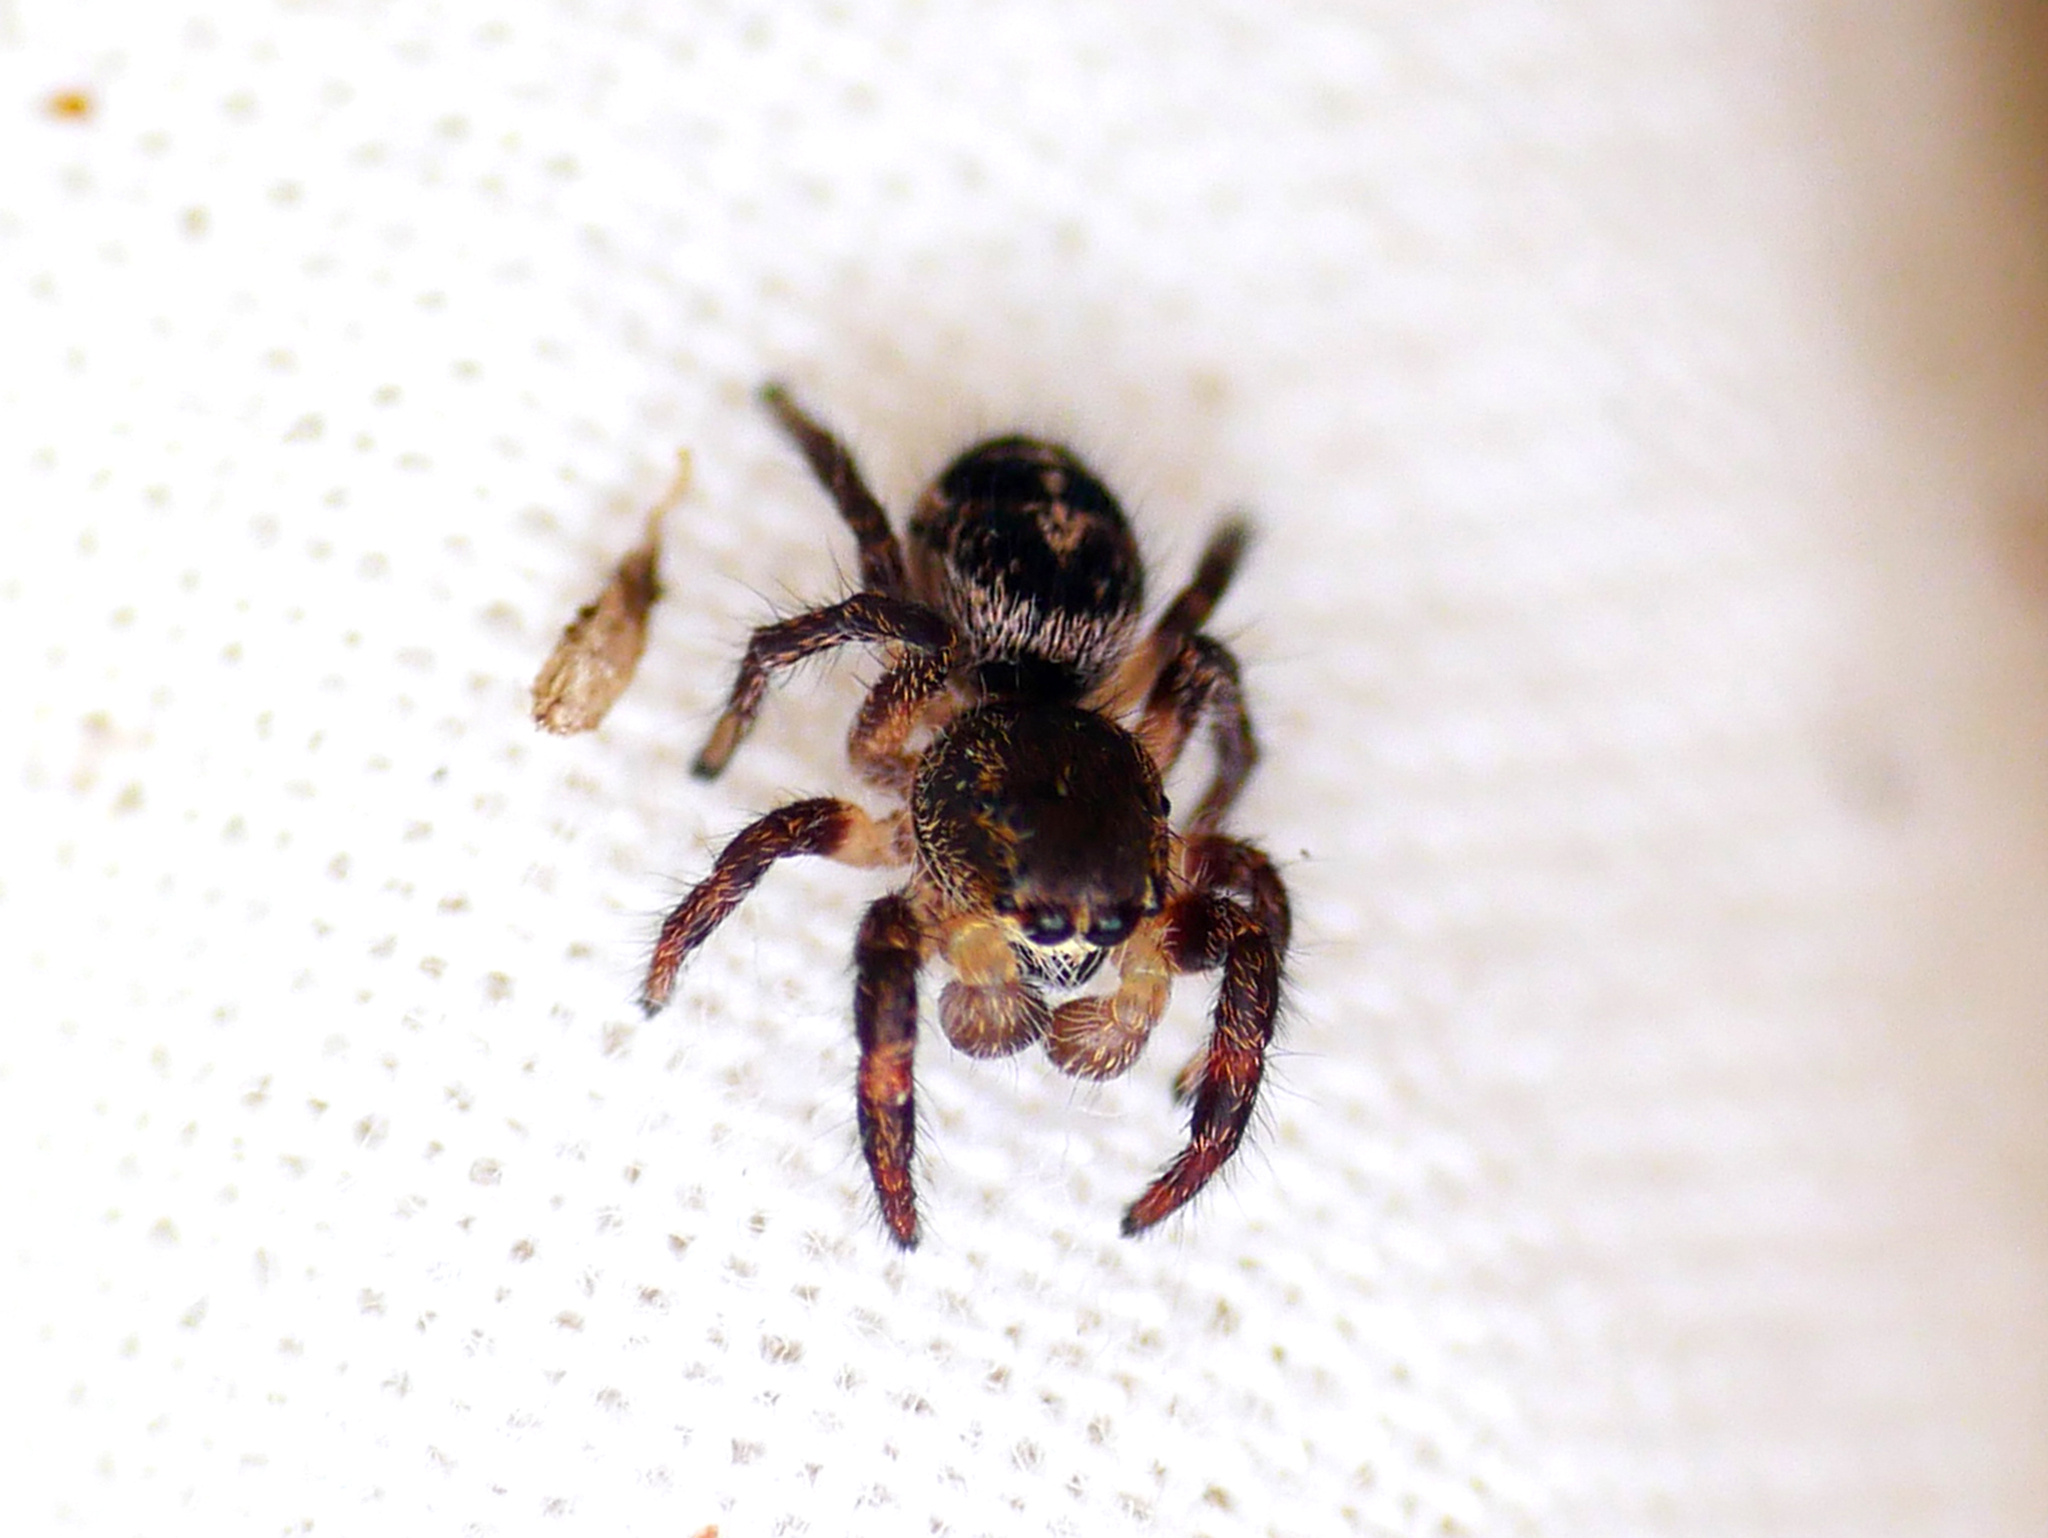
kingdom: Animalia
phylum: Arthropoda
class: Arachnida
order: Araneae
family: Salticidae
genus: Pellenes
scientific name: Pellenes tripunctatus
